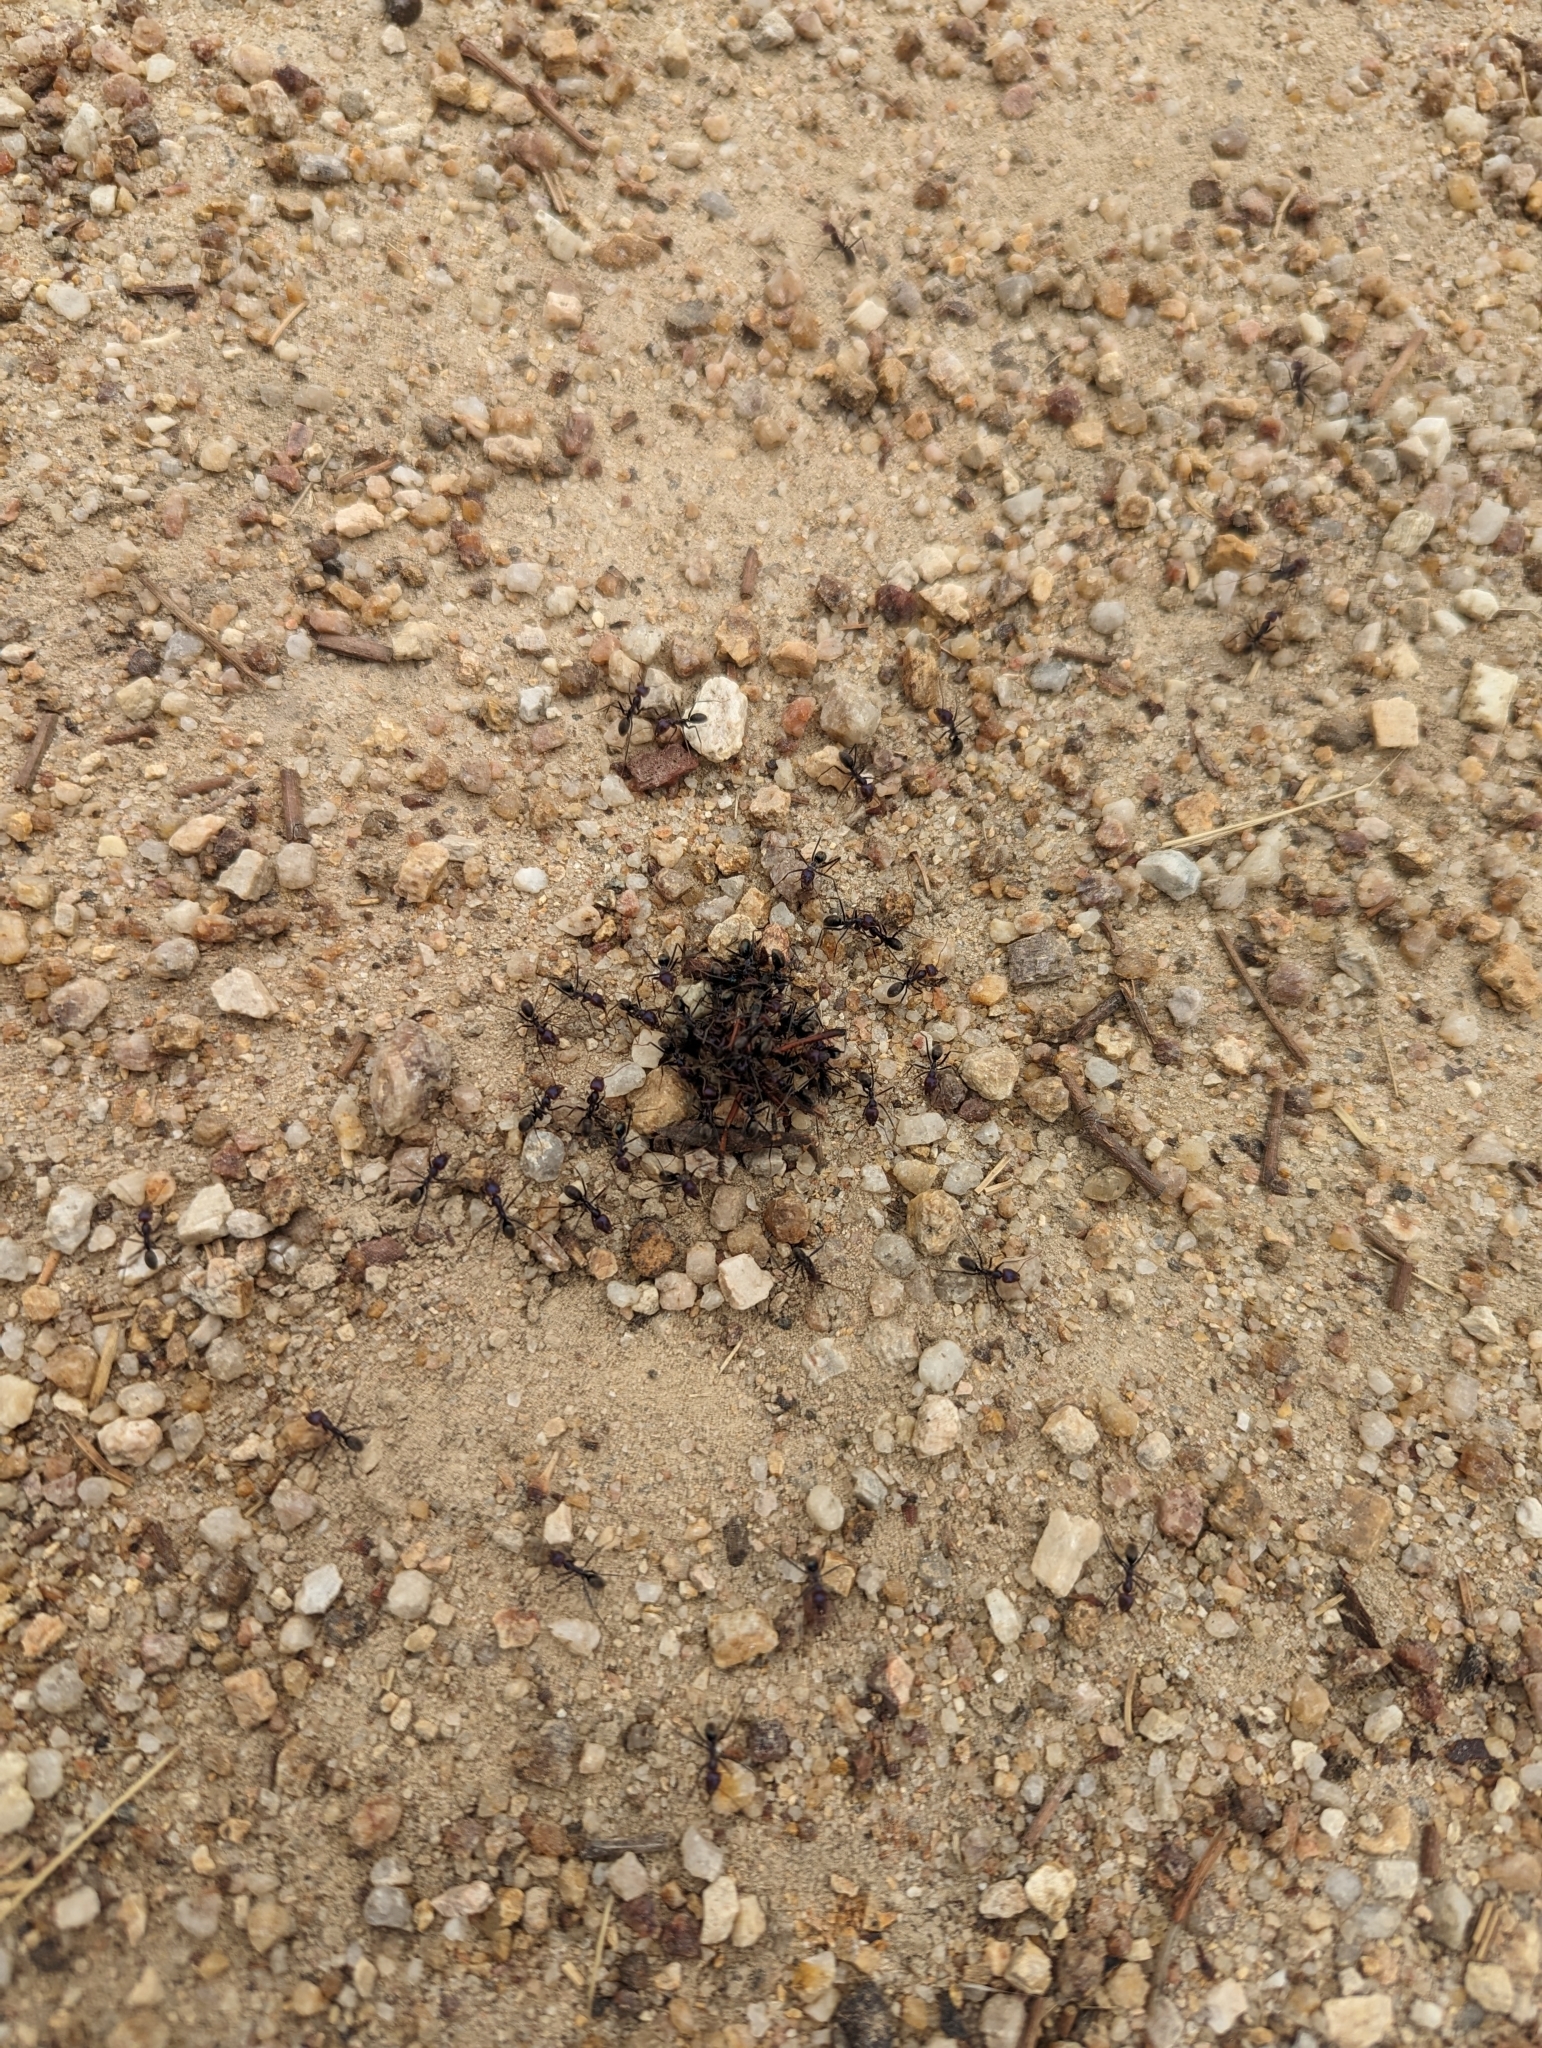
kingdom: Animalia
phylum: Arthropoda
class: Insecta
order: Hymenoptera
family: Formicidae
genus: Iridomyrmex
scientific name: Iridomyrmex purpureus
